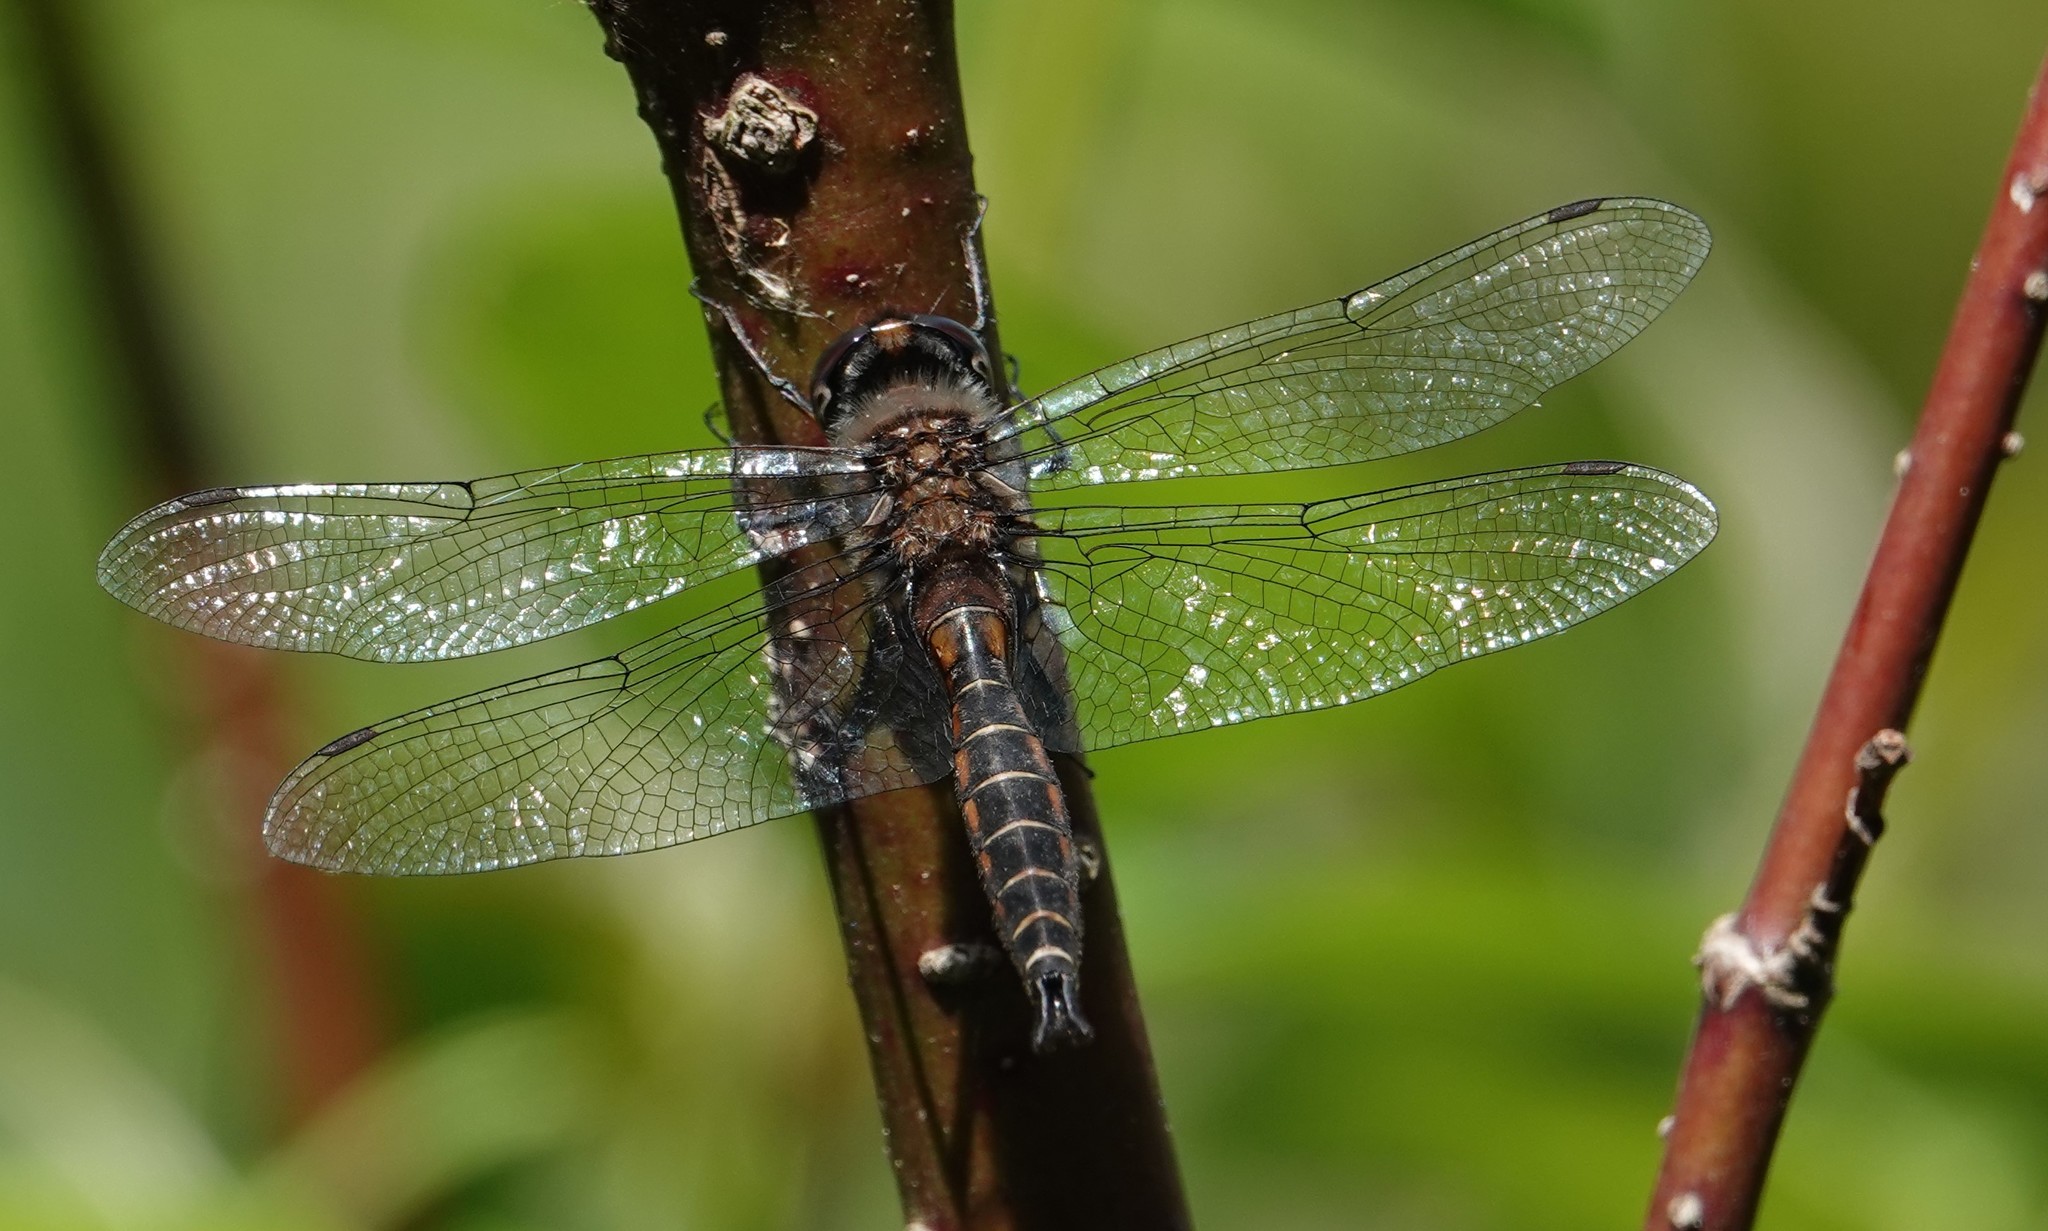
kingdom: Animalia
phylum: Arthropoda
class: Insecta
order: Odonata
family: Corduliidae
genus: Epitheca
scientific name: Epitheca spinigera
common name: Spiny baskettail
